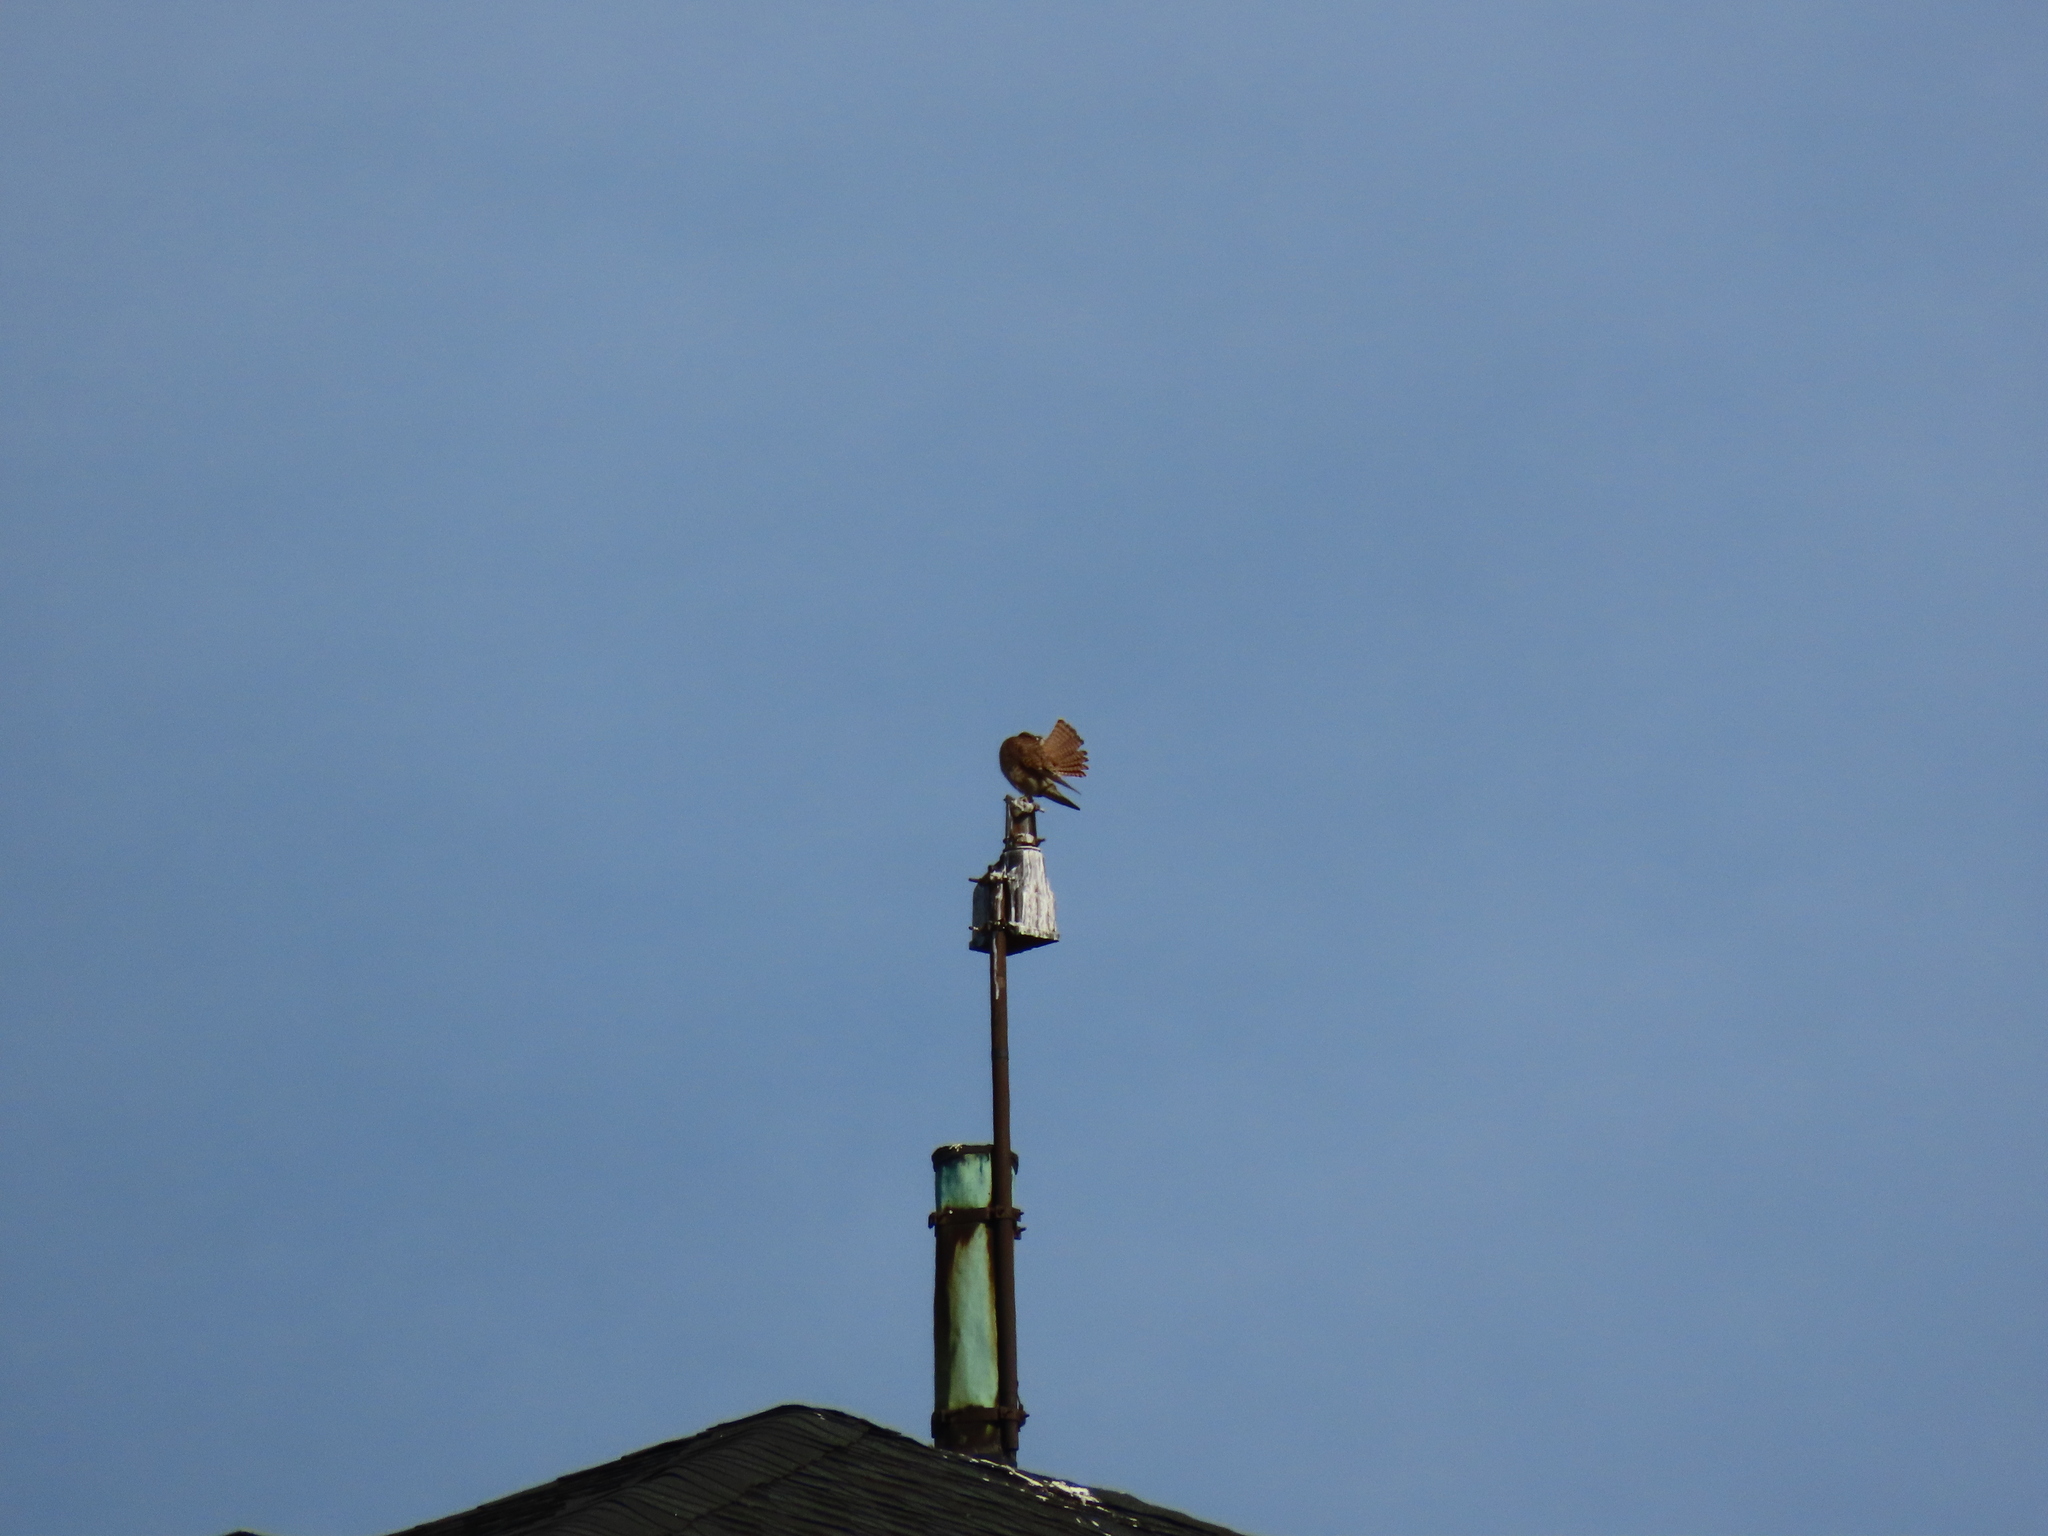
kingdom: Animalia
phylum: Chordata
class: Aves
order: Falconiformes
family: Falconidae
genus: Falco
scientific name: Falco sparverius
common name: American kestrel
